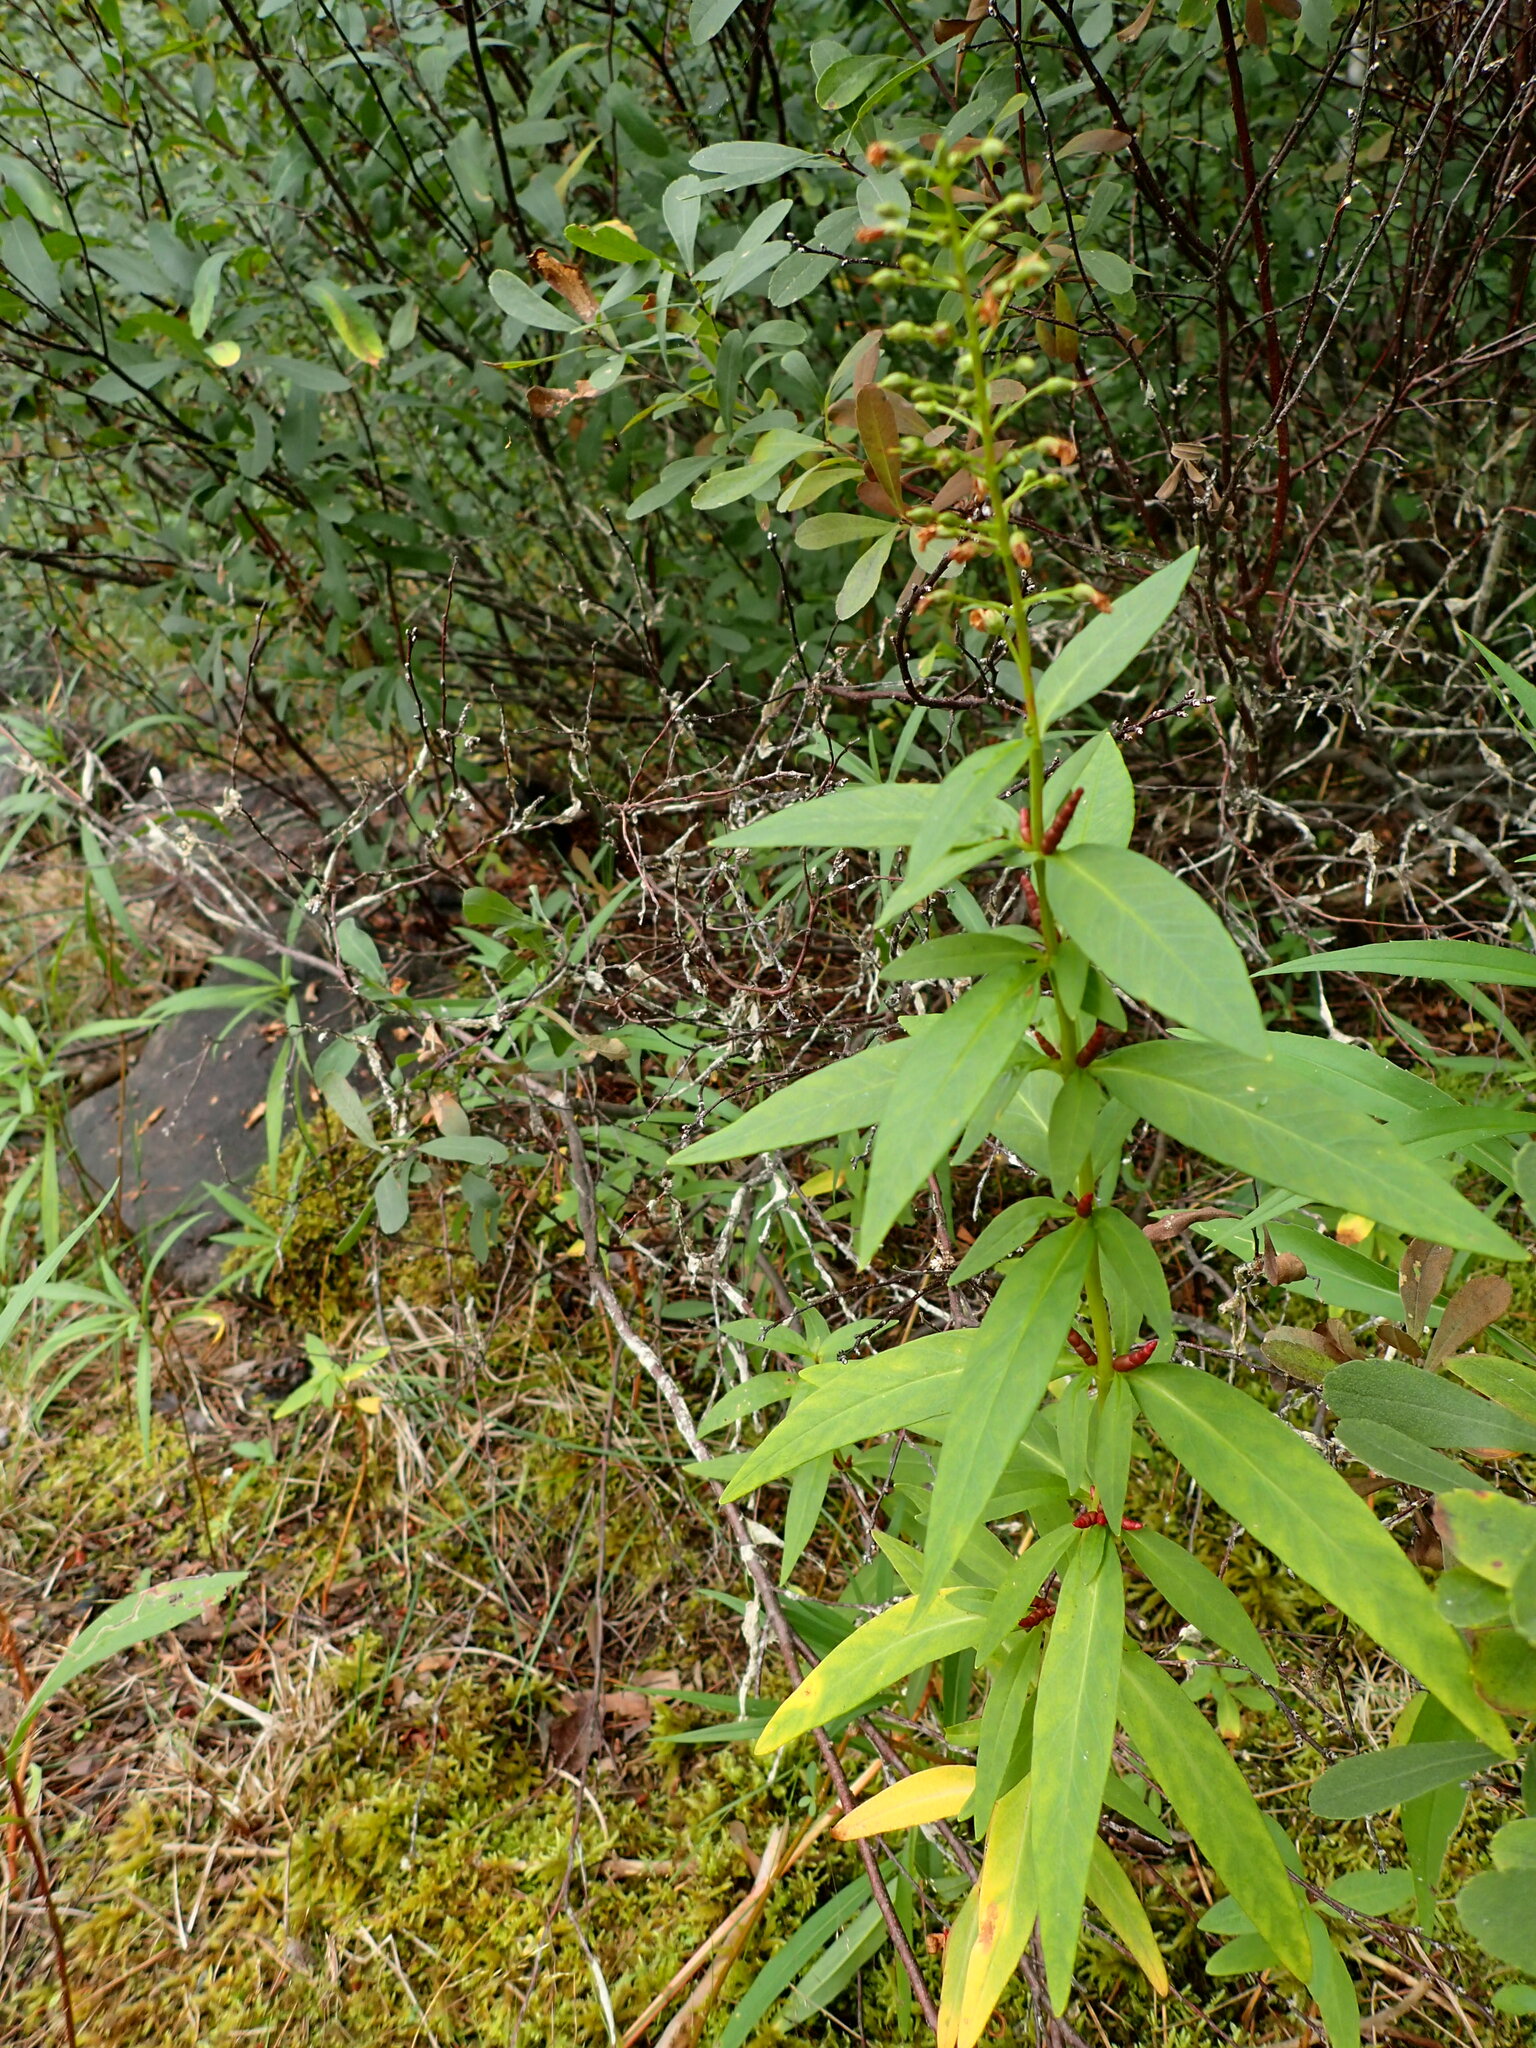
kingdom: Plantae
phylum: Tracheophyta
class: Magnoliopsida
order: Ericales
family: Primulaceae
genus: Lysimachia
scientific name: Lysimachia terrestris
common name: Lake loosestrife
